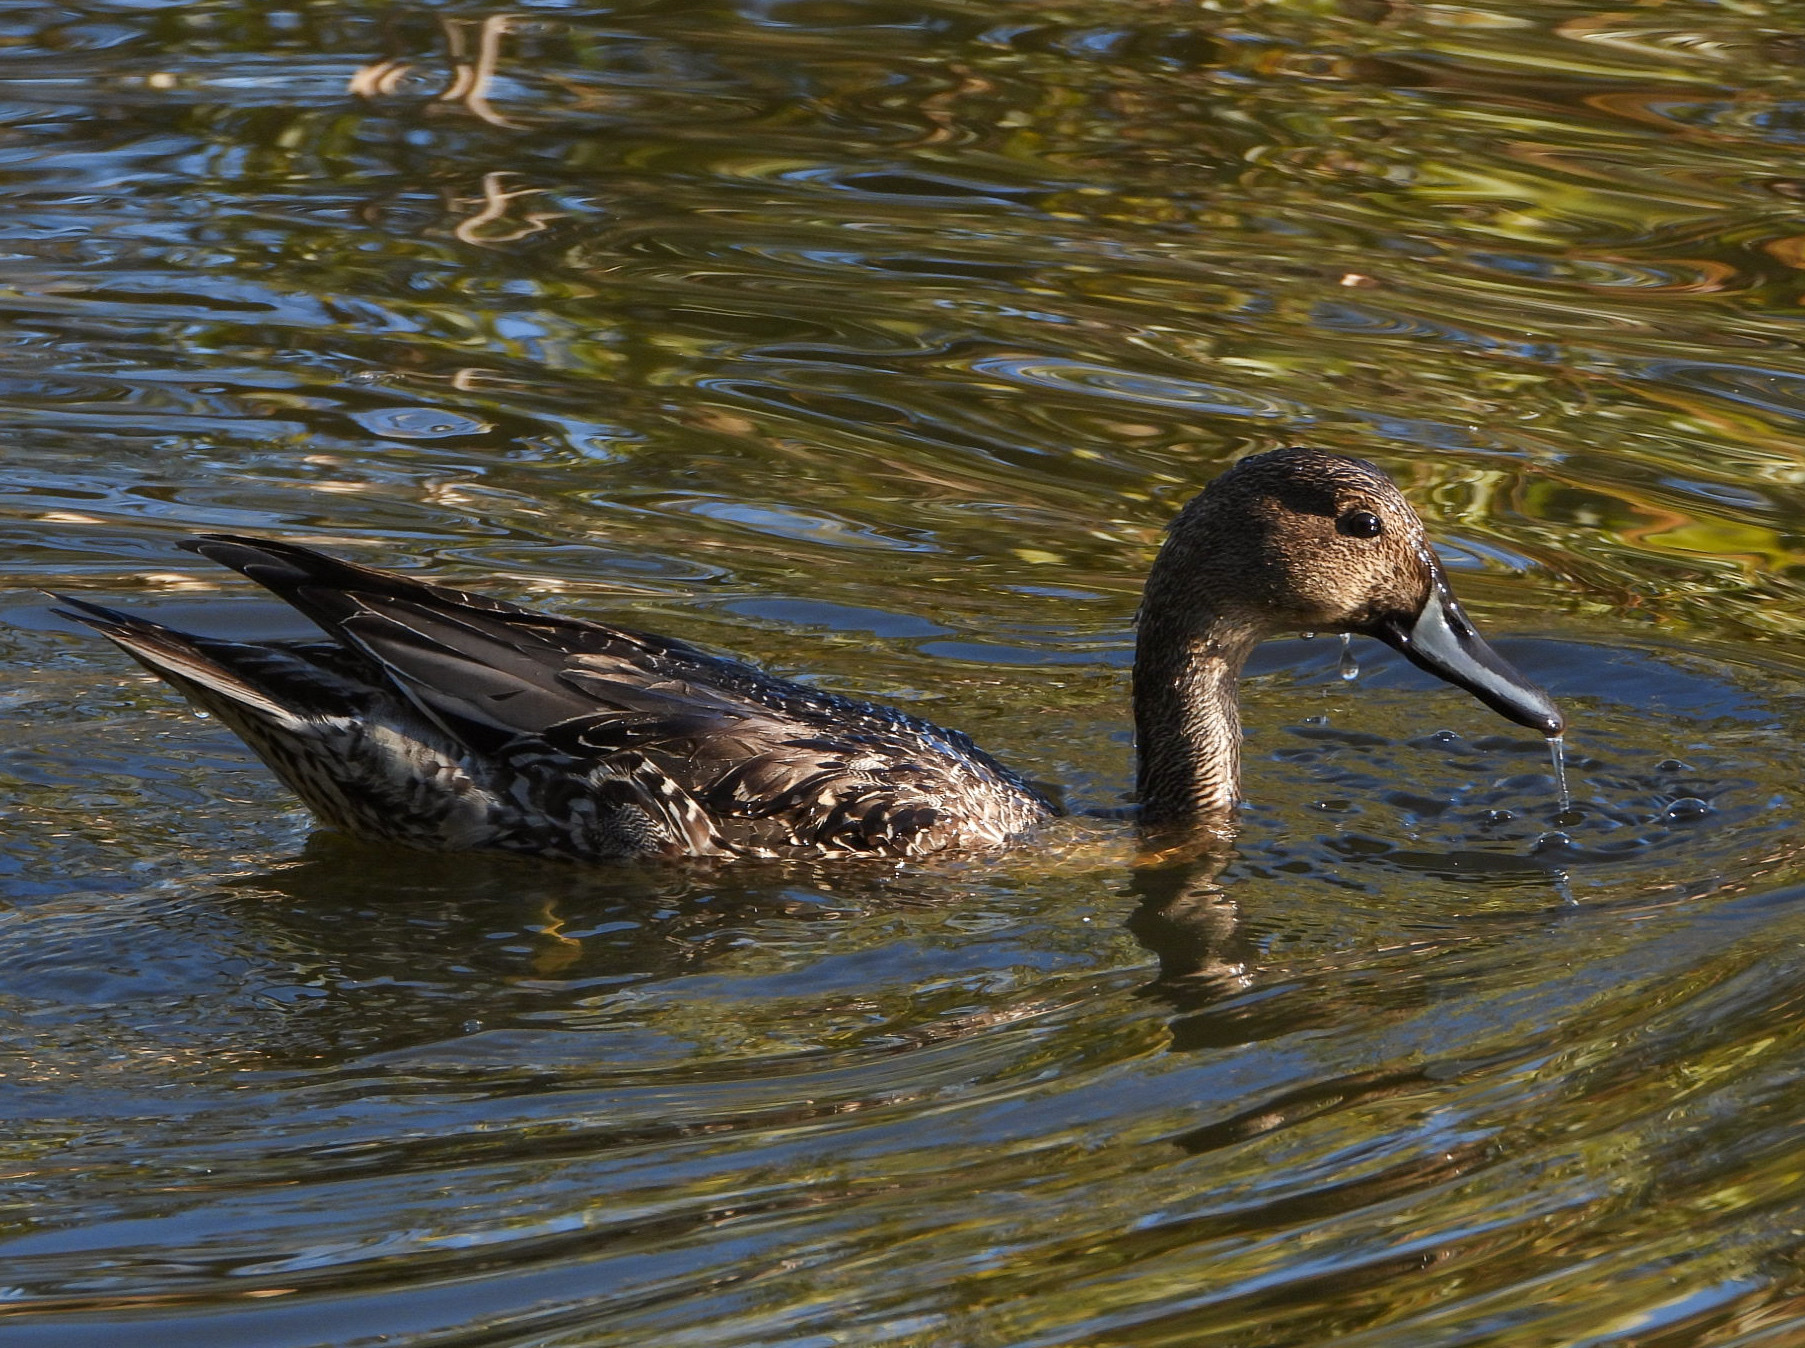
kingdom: Animalia
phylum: Chordata
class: Aves
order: Anseriformes
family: Anatidae
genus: Anas
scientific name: Anas acuta
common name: Northern pintail
